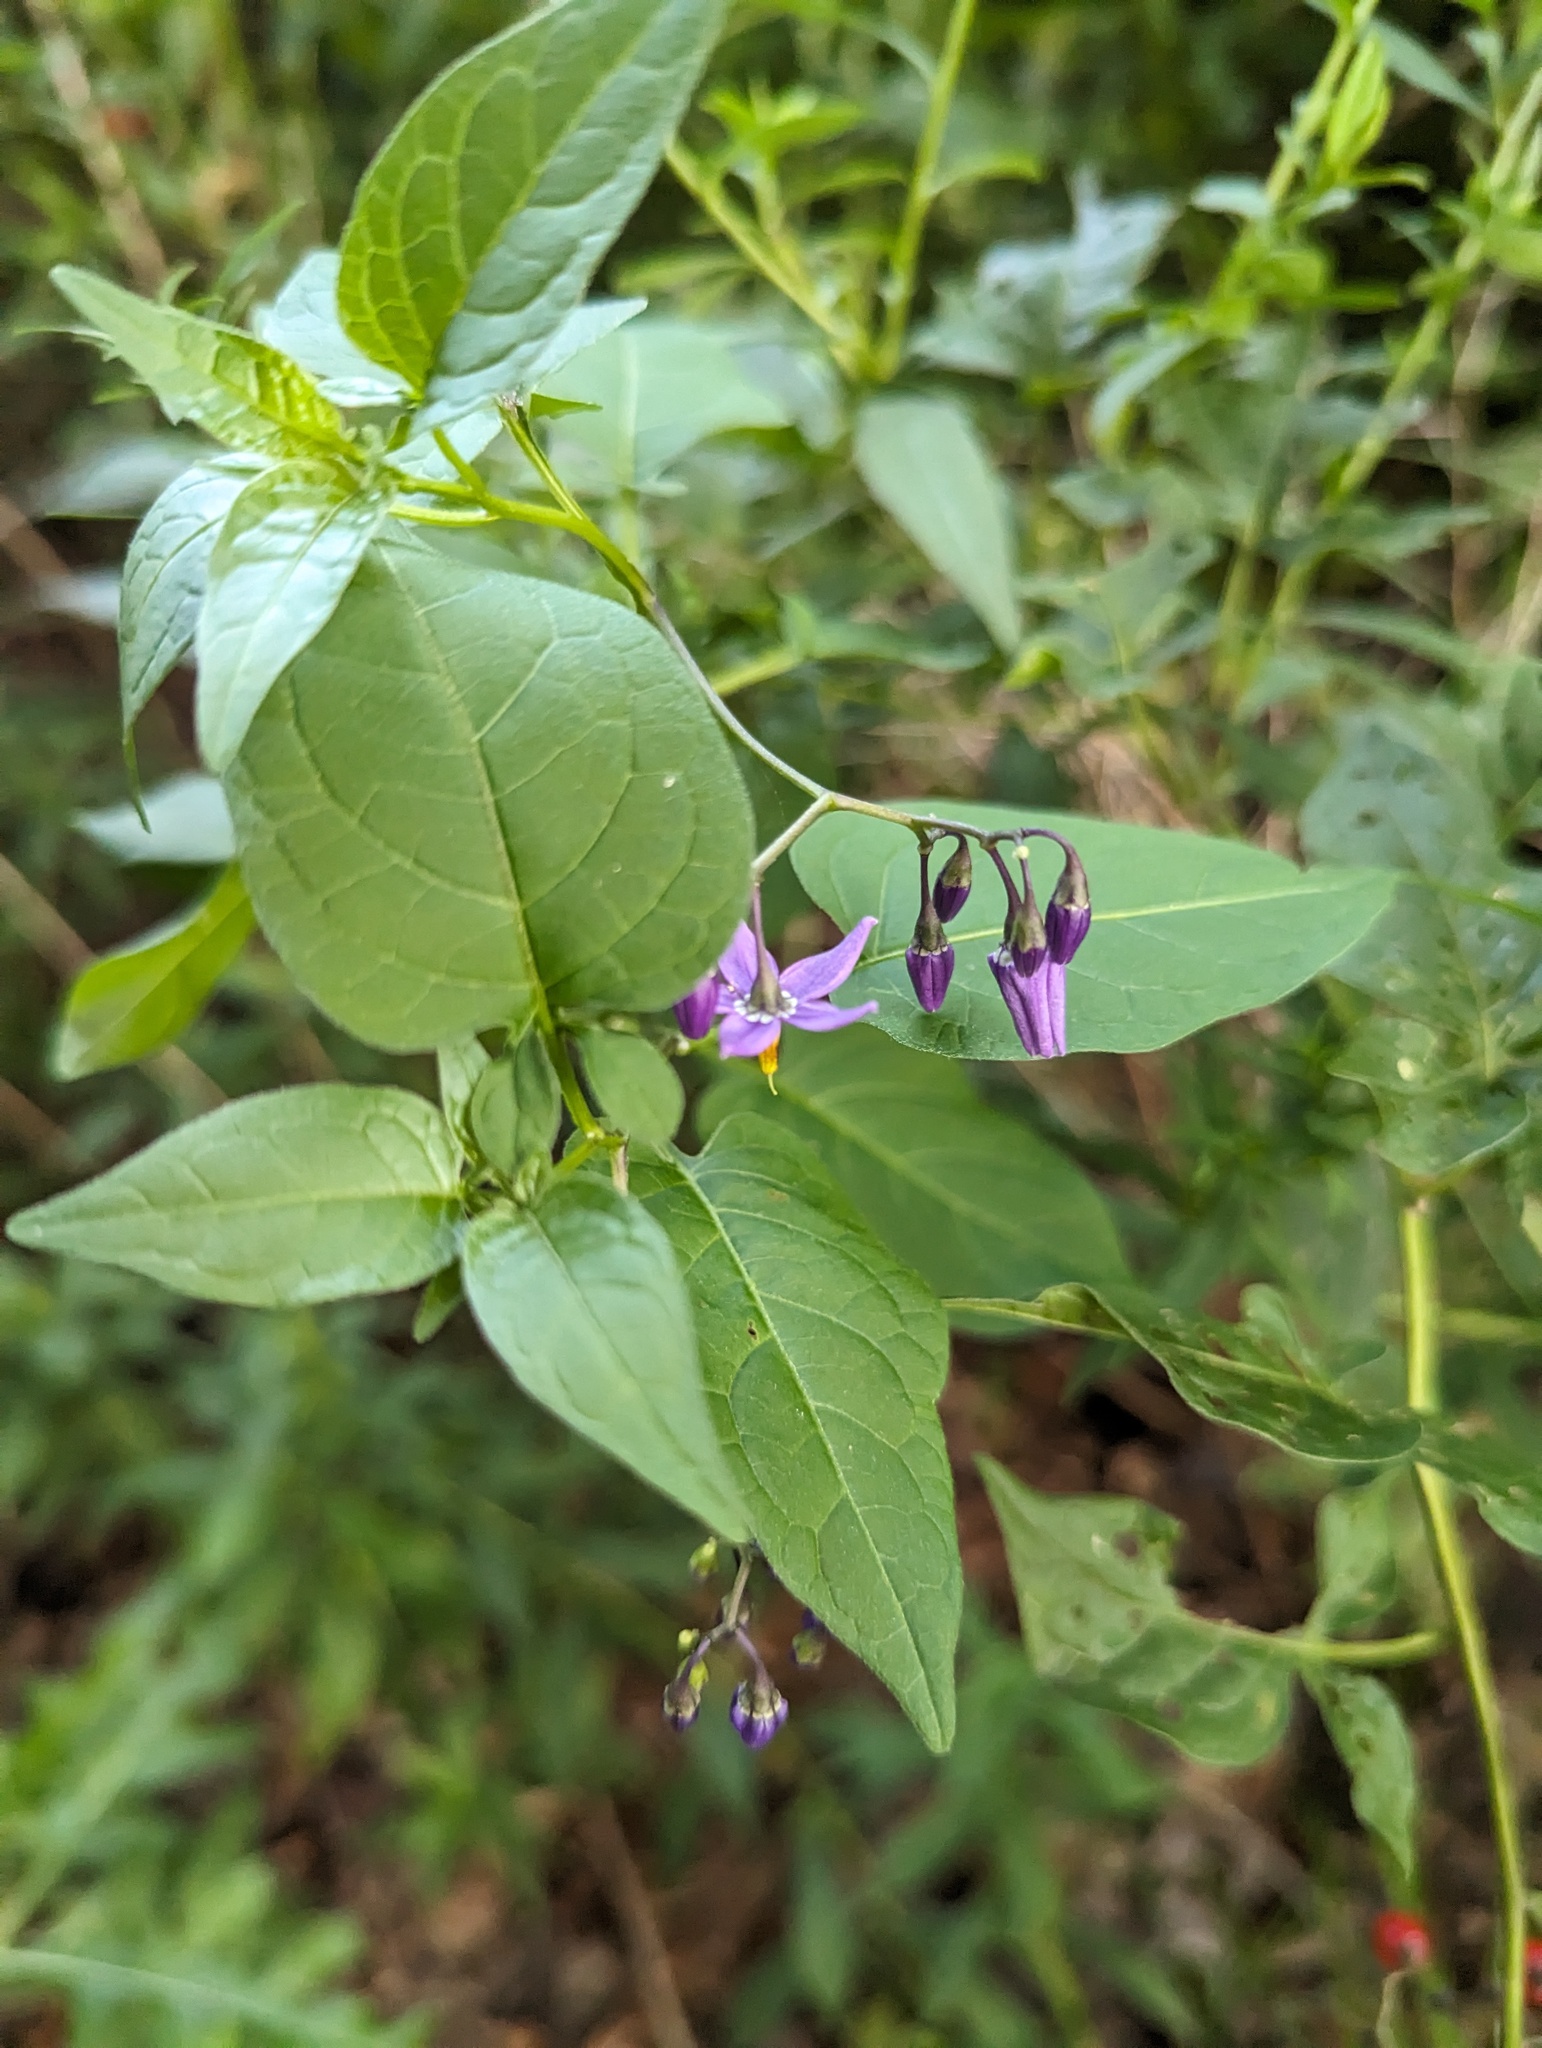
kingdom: Plantae
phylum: Tracheophyta
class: Magnoliopsida
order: Solanales
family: Solanaceae
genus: Solanum
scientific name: Solanum dulcamara
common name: Climbing nightshade
